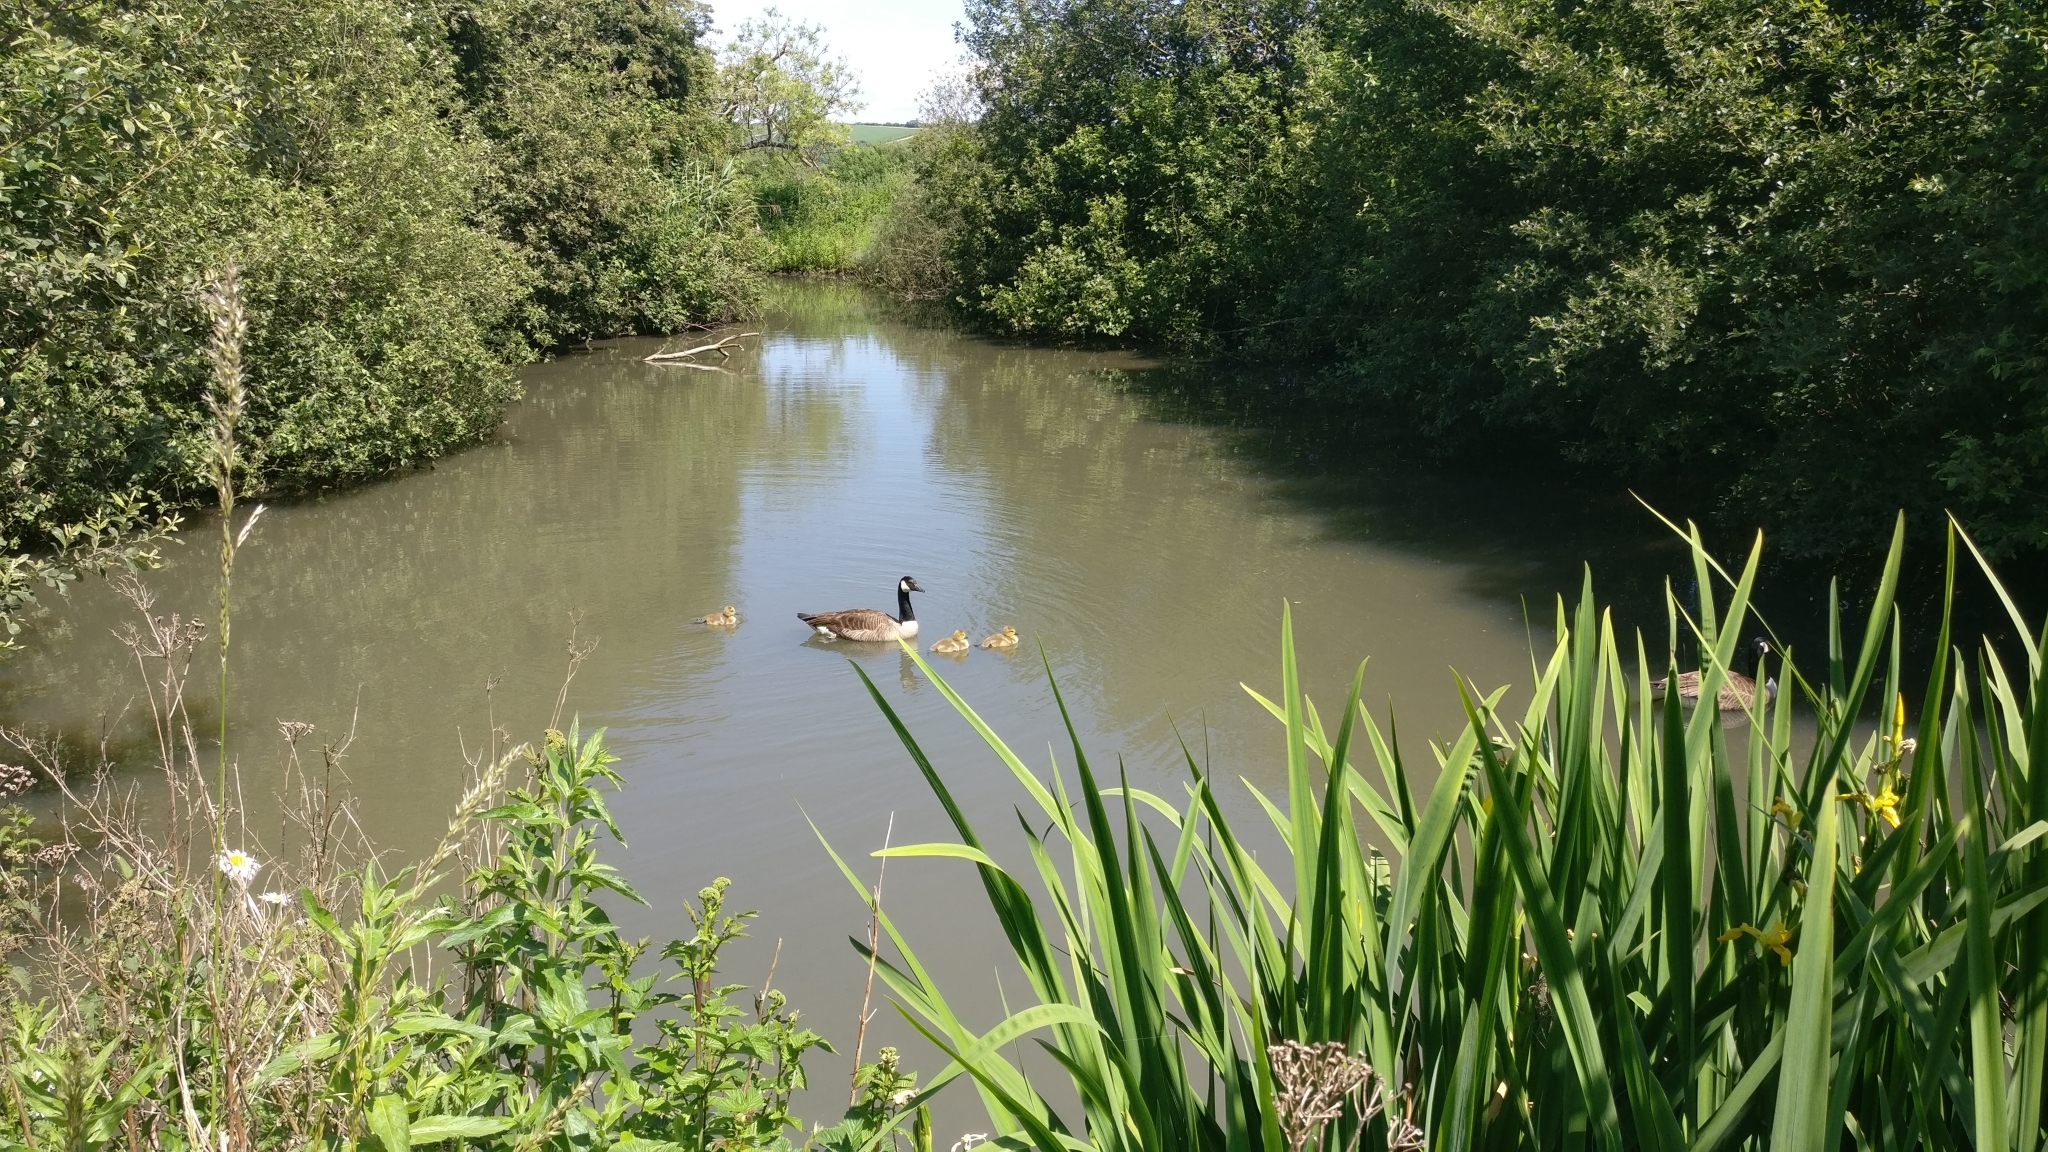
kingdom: Animalia
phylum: Chordata
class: Aves
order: Anseriformes
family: Anatidae
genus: Branta
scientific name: Branta canadensis
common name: Canada goose
